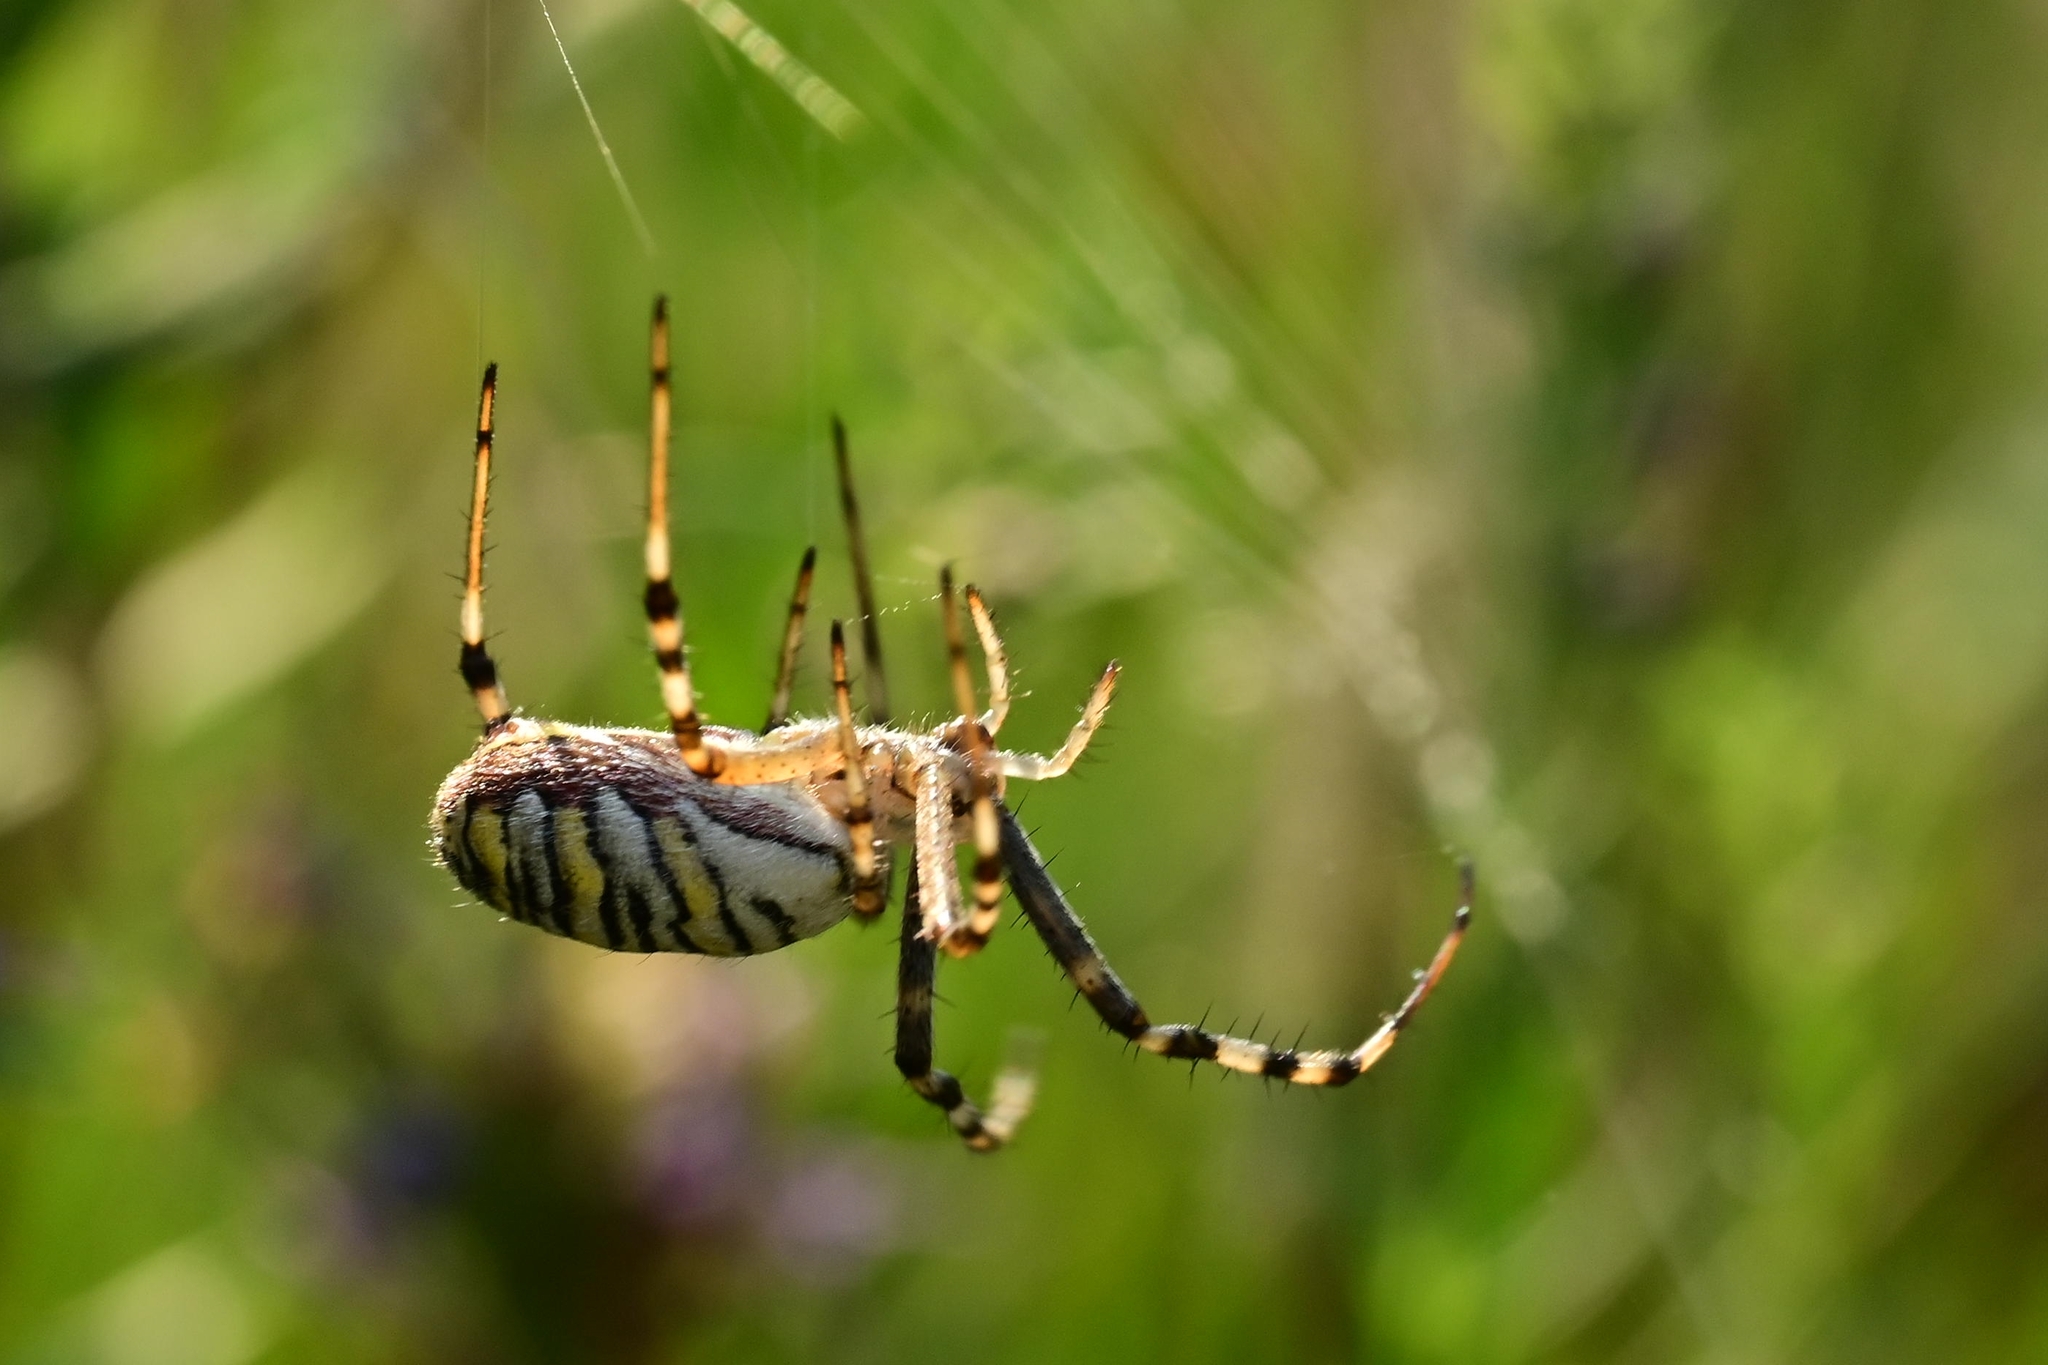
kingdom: Animalia
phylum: Arthropoda
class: Arachnida
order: Araneae
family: Araneidae
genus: Argiope
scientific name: Argiope bruennichi
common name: Wasp spider
